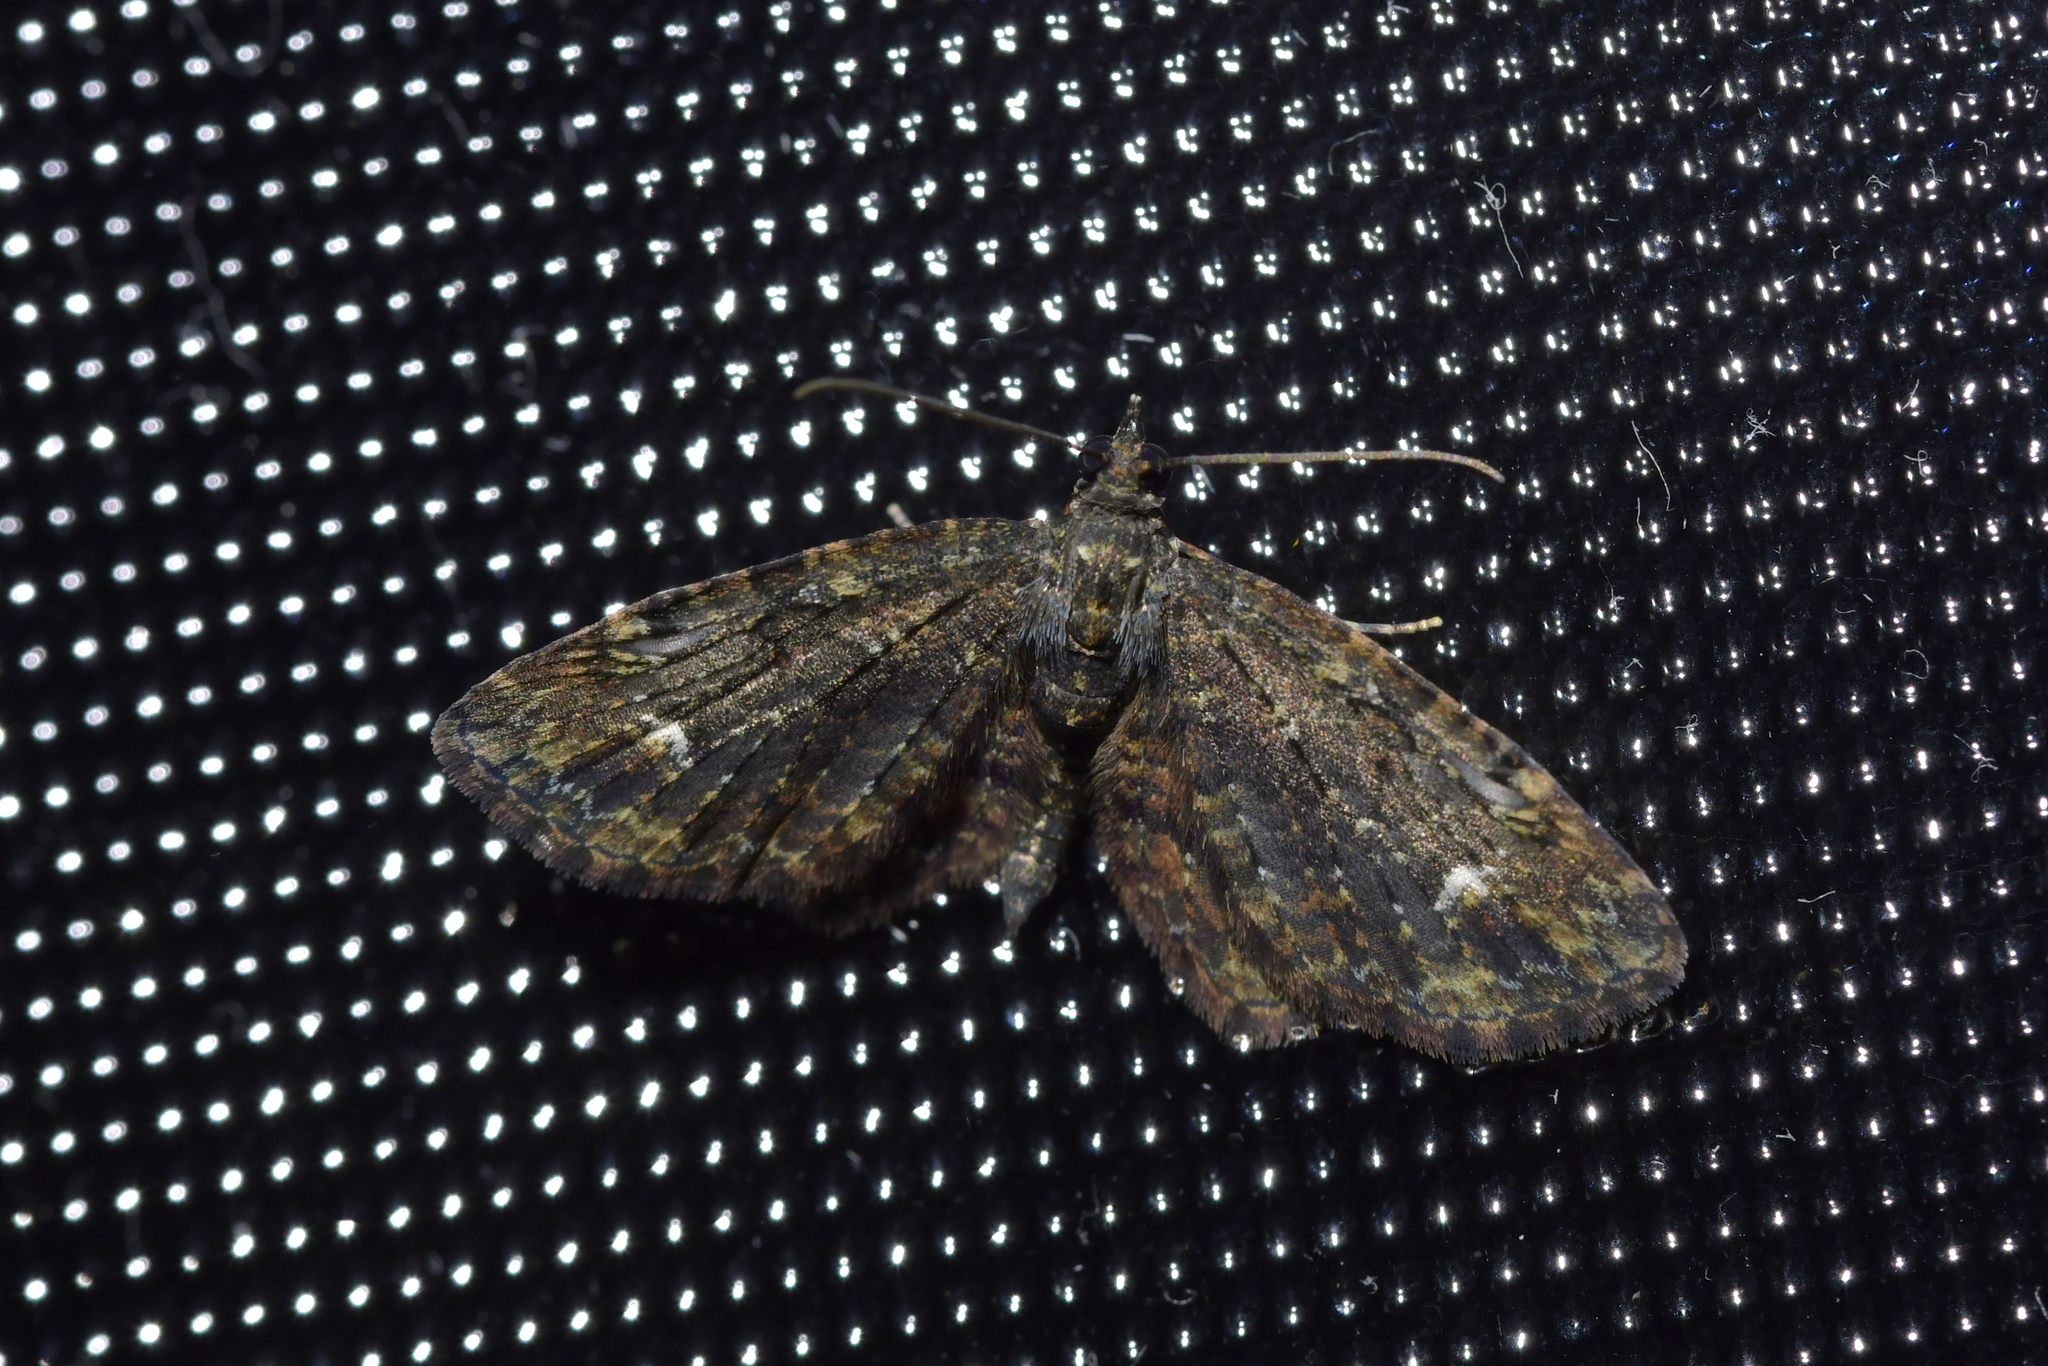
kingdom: Animalia
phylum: Arthropoda
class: Insecta
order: Lepidoptera
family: Geometridae
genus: Pasiphilodes
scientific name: Pasiphilodes testulata
